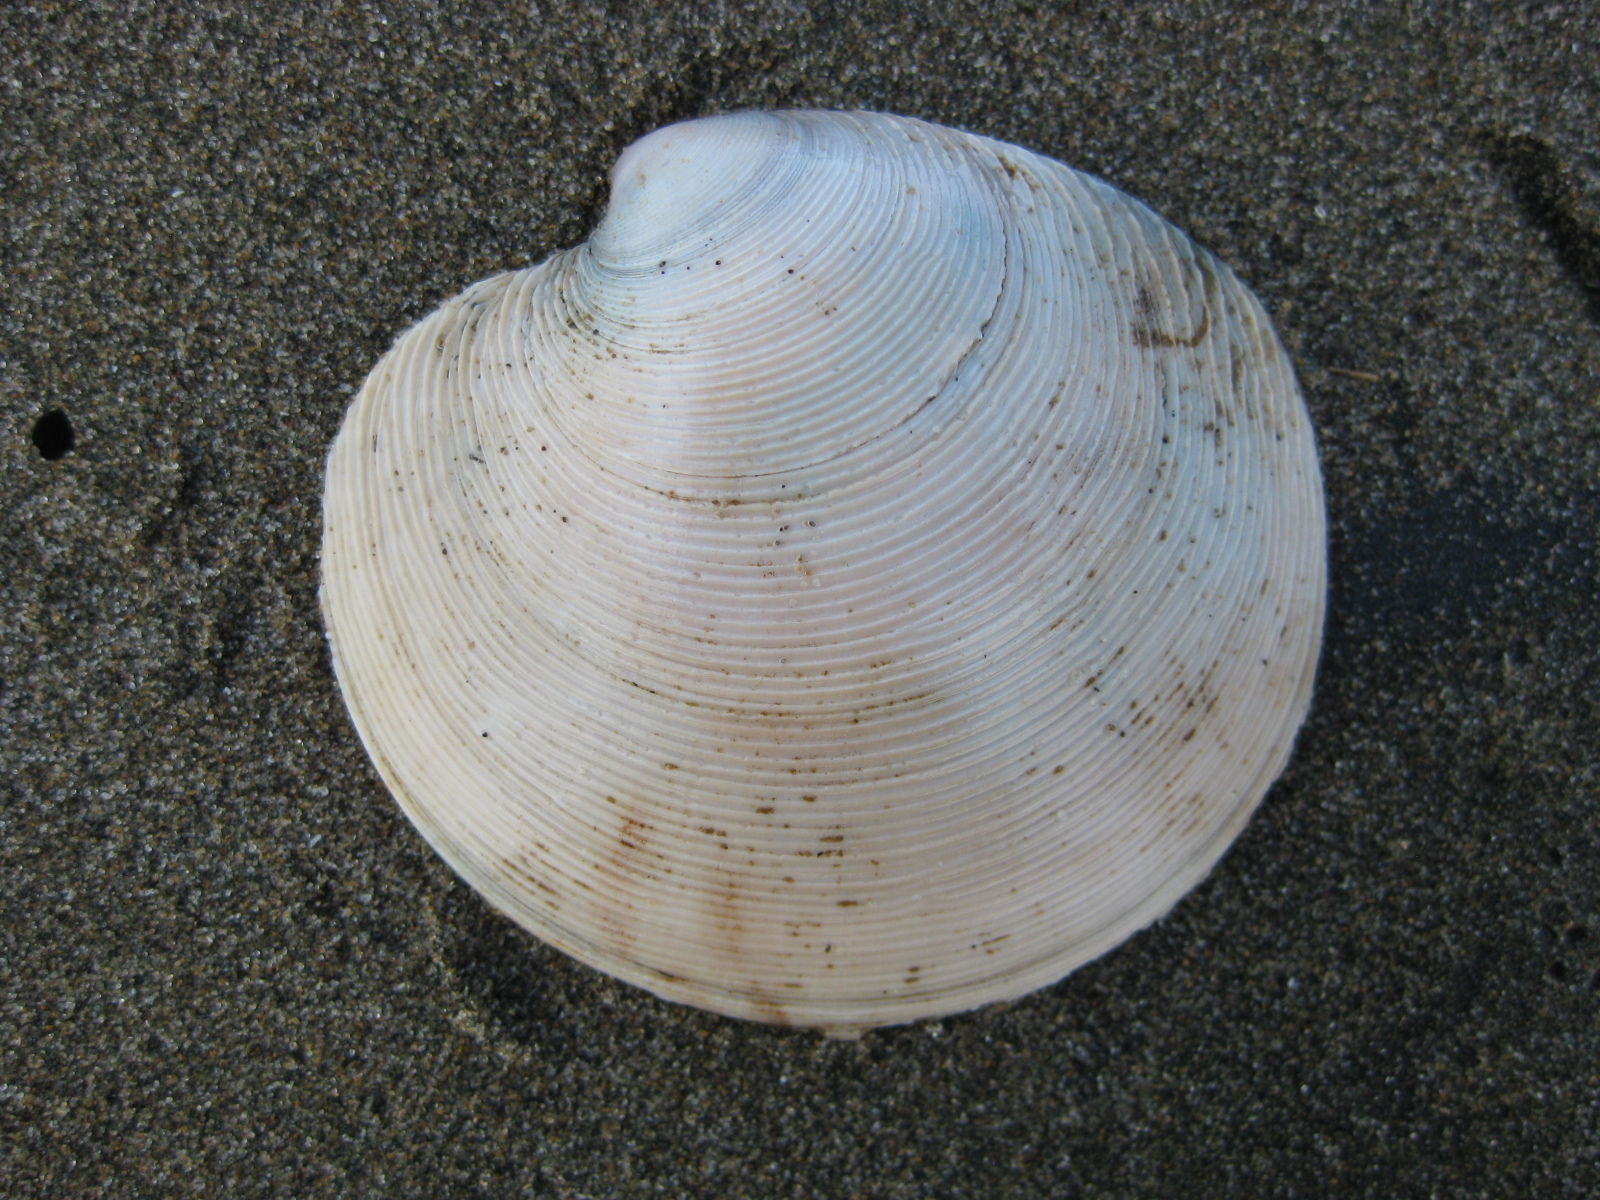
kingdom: Animalia
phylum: Mollusca
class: Bivalvia
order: Venerida
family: Veneridae
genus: Dosinia
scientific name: Dosinia anus
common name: Old-woman dosinia
